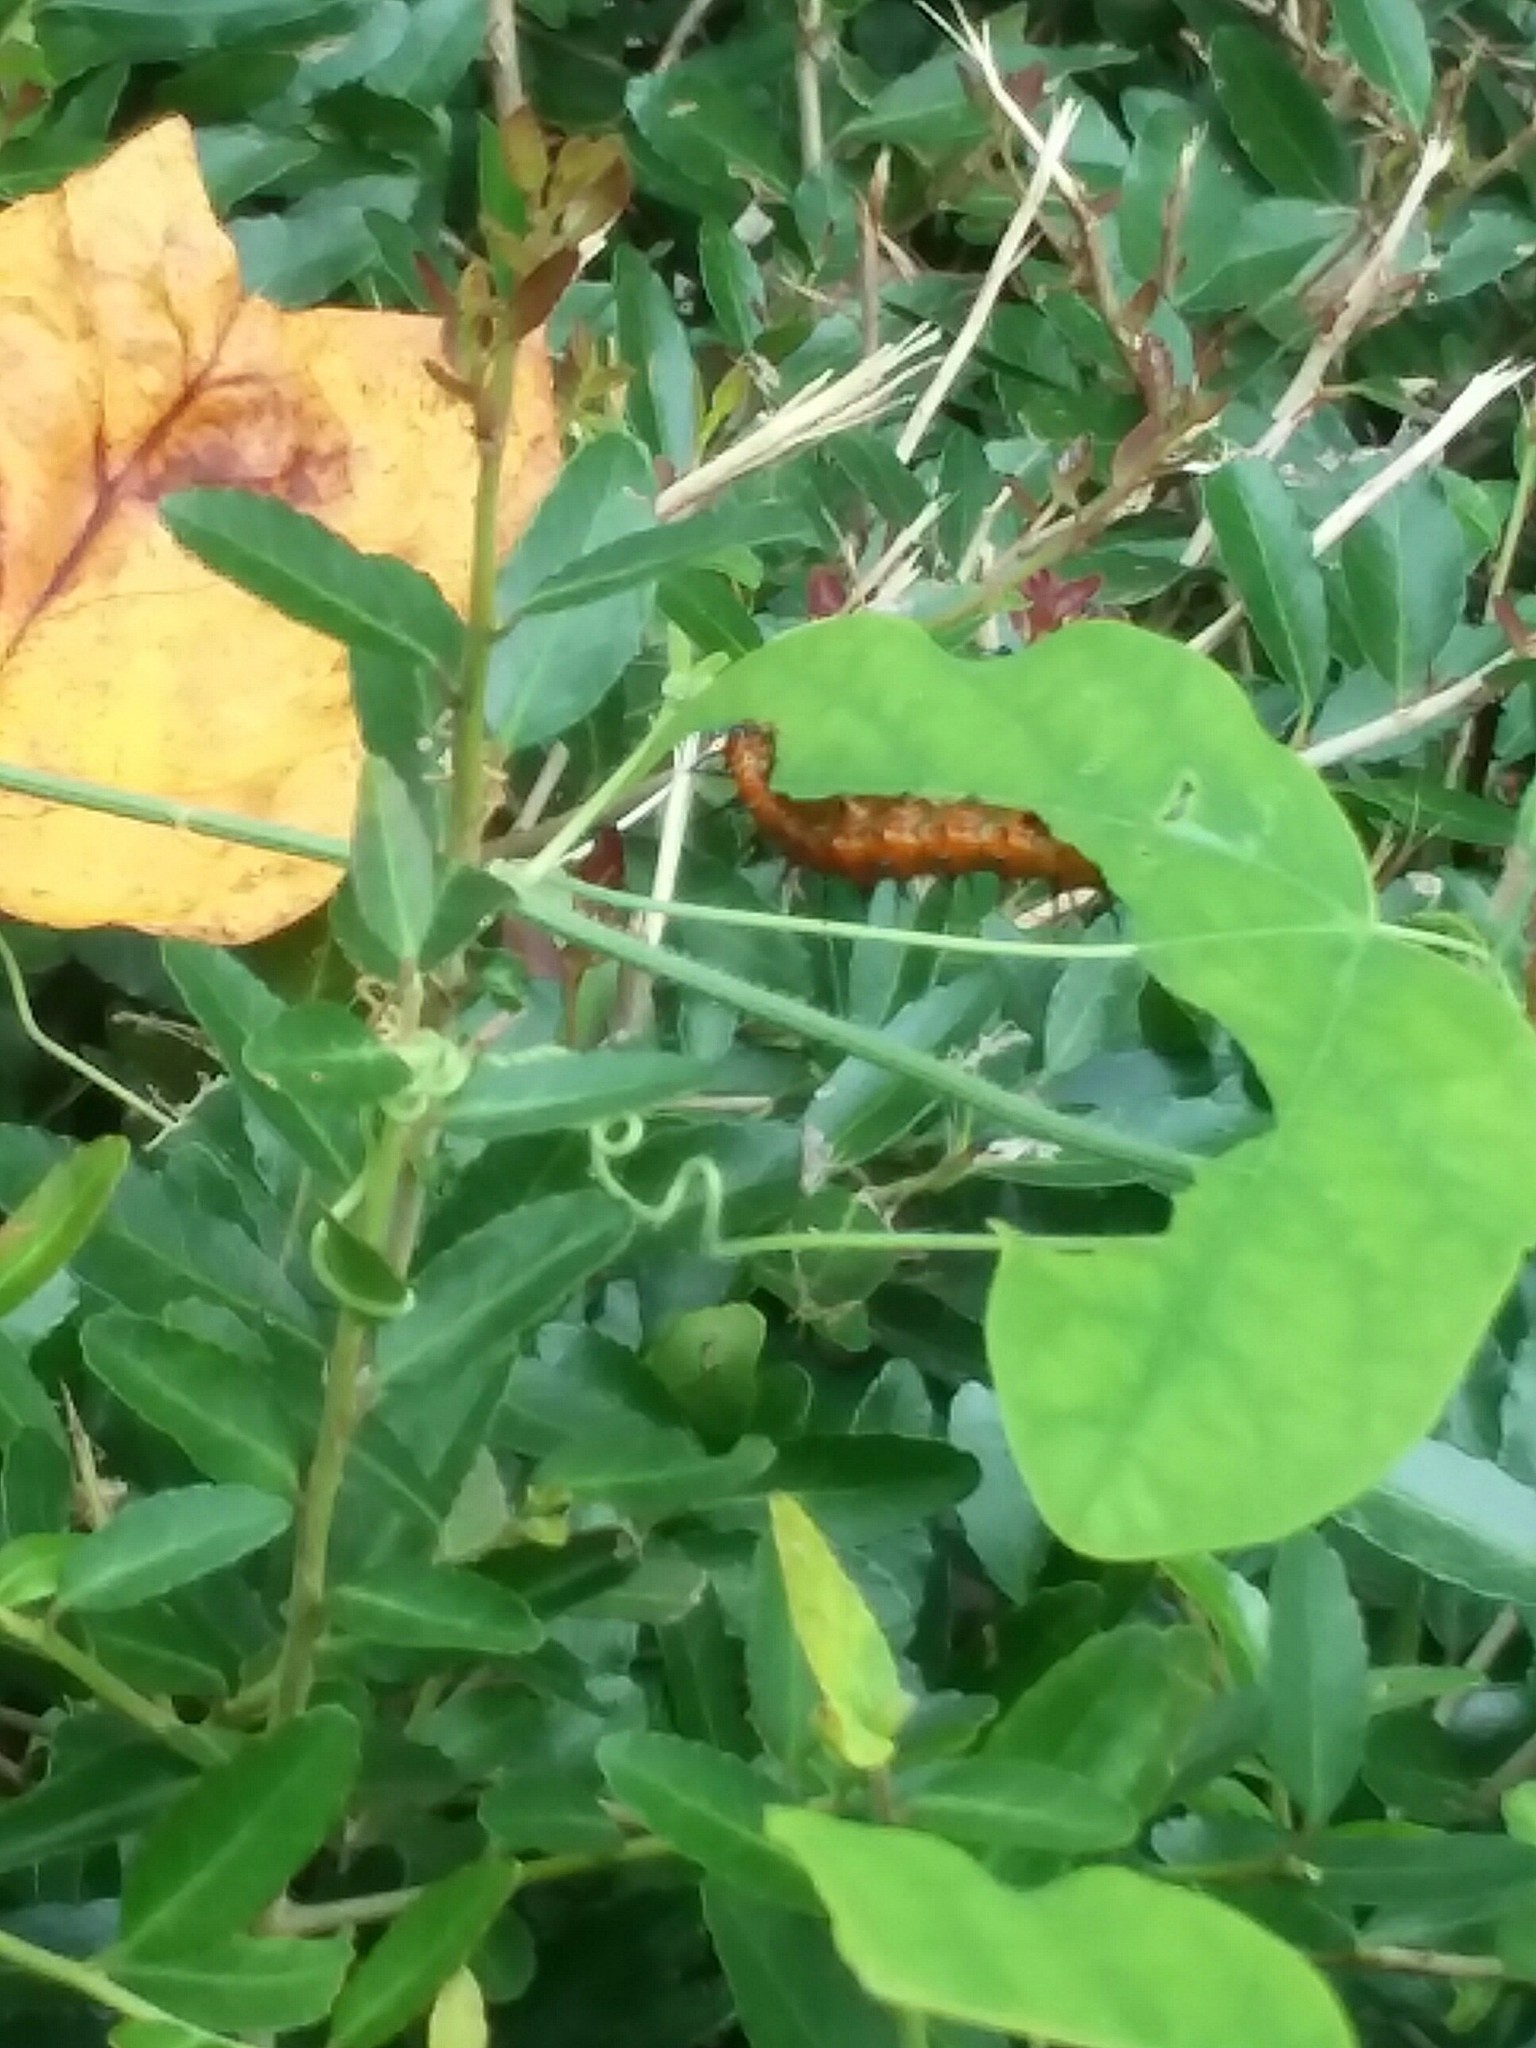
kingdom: Animalia
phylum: Arthropoda
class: Insecta
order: Lepidoptera
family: Nymphalidae
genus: Dione
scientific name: Dione vanillae
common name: Gulf fritillary
